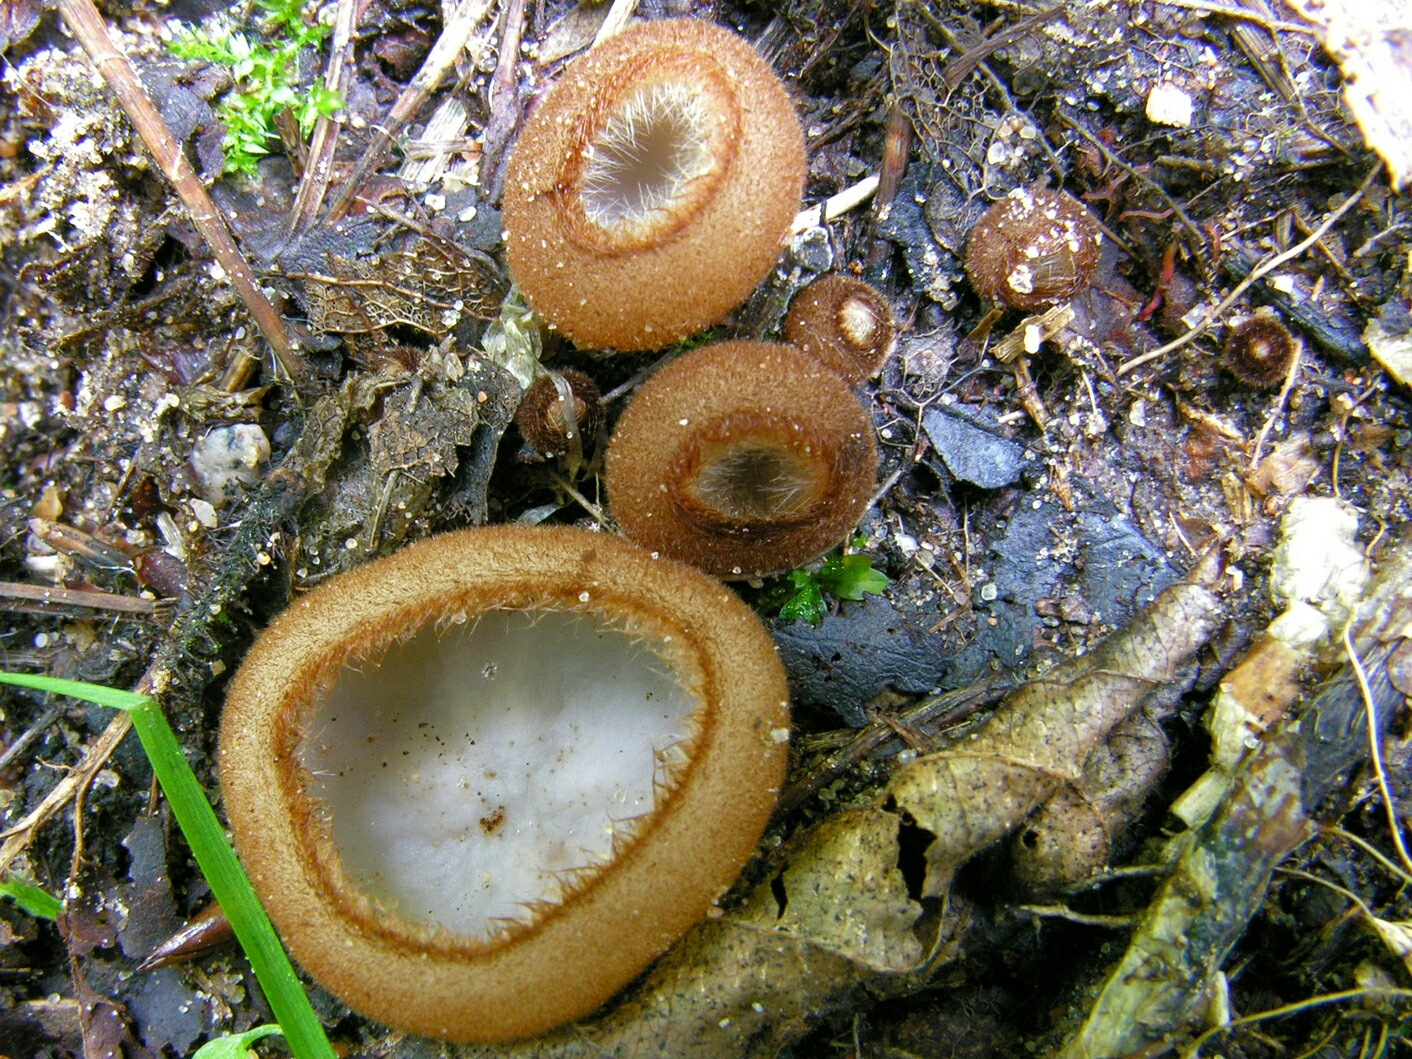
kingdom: Fungi
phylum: Ascomycota
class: Pezizomycetes
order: Pezizales
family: Pyronemataceae
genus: Humaria
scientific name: Humaria hemisphaerica
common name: Glazed cup
